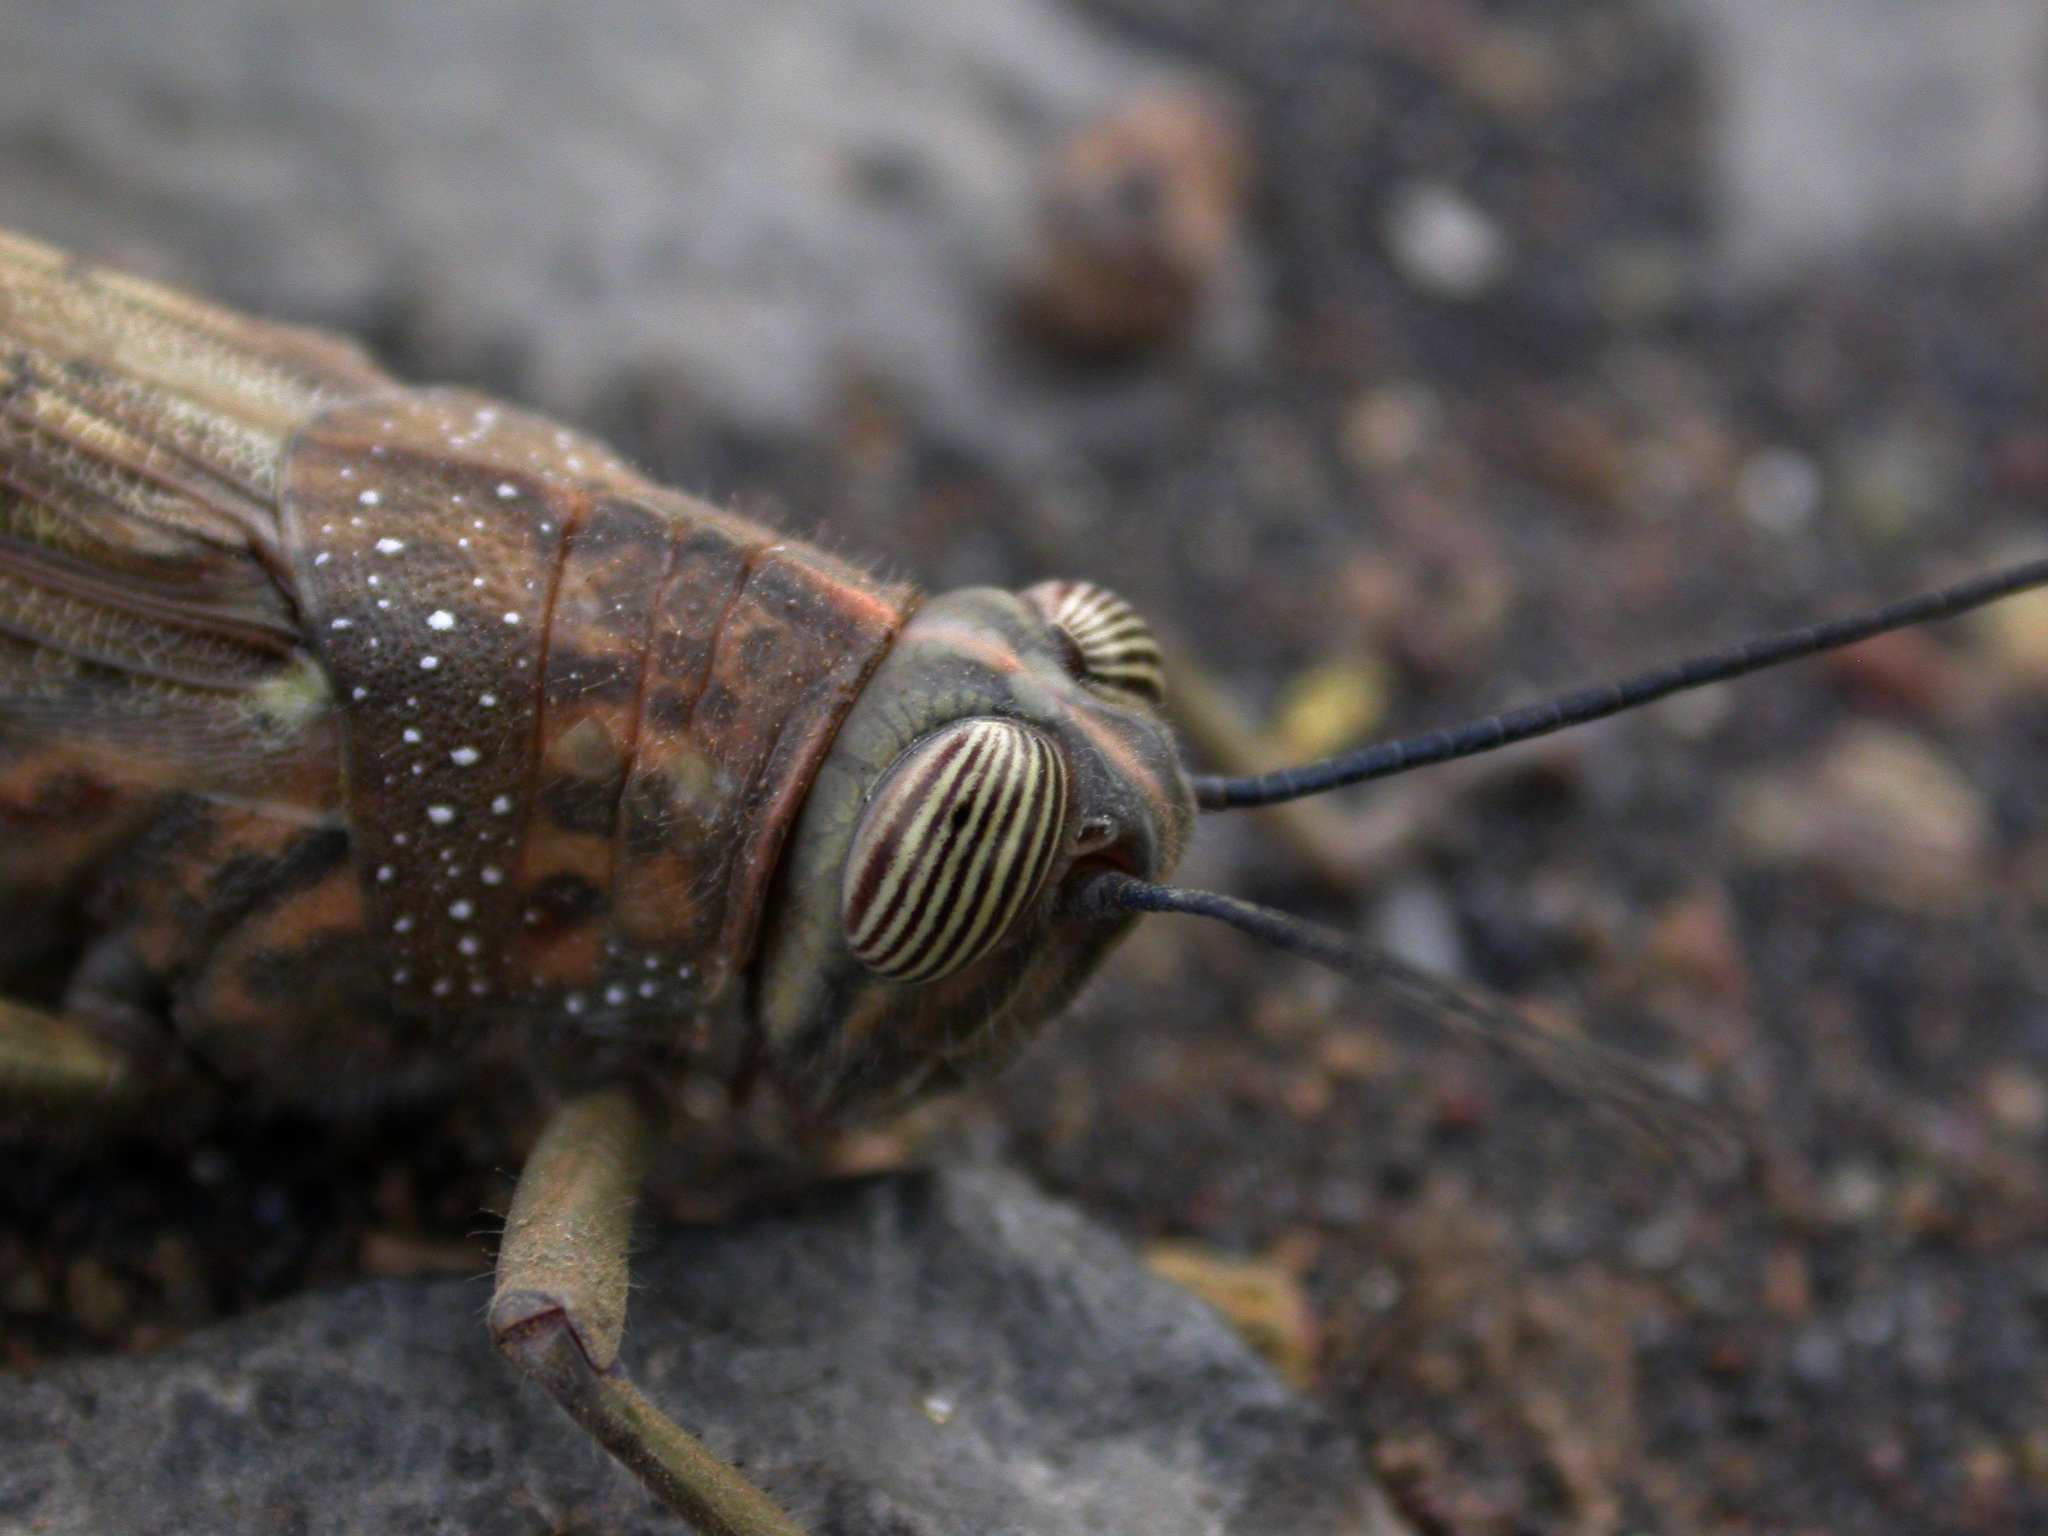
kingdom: Animalia
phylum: Arthropoda
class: Insecta
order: Orthoptera
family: Acrididae
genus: Anacridium
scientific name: Anacridium melanorhodon
